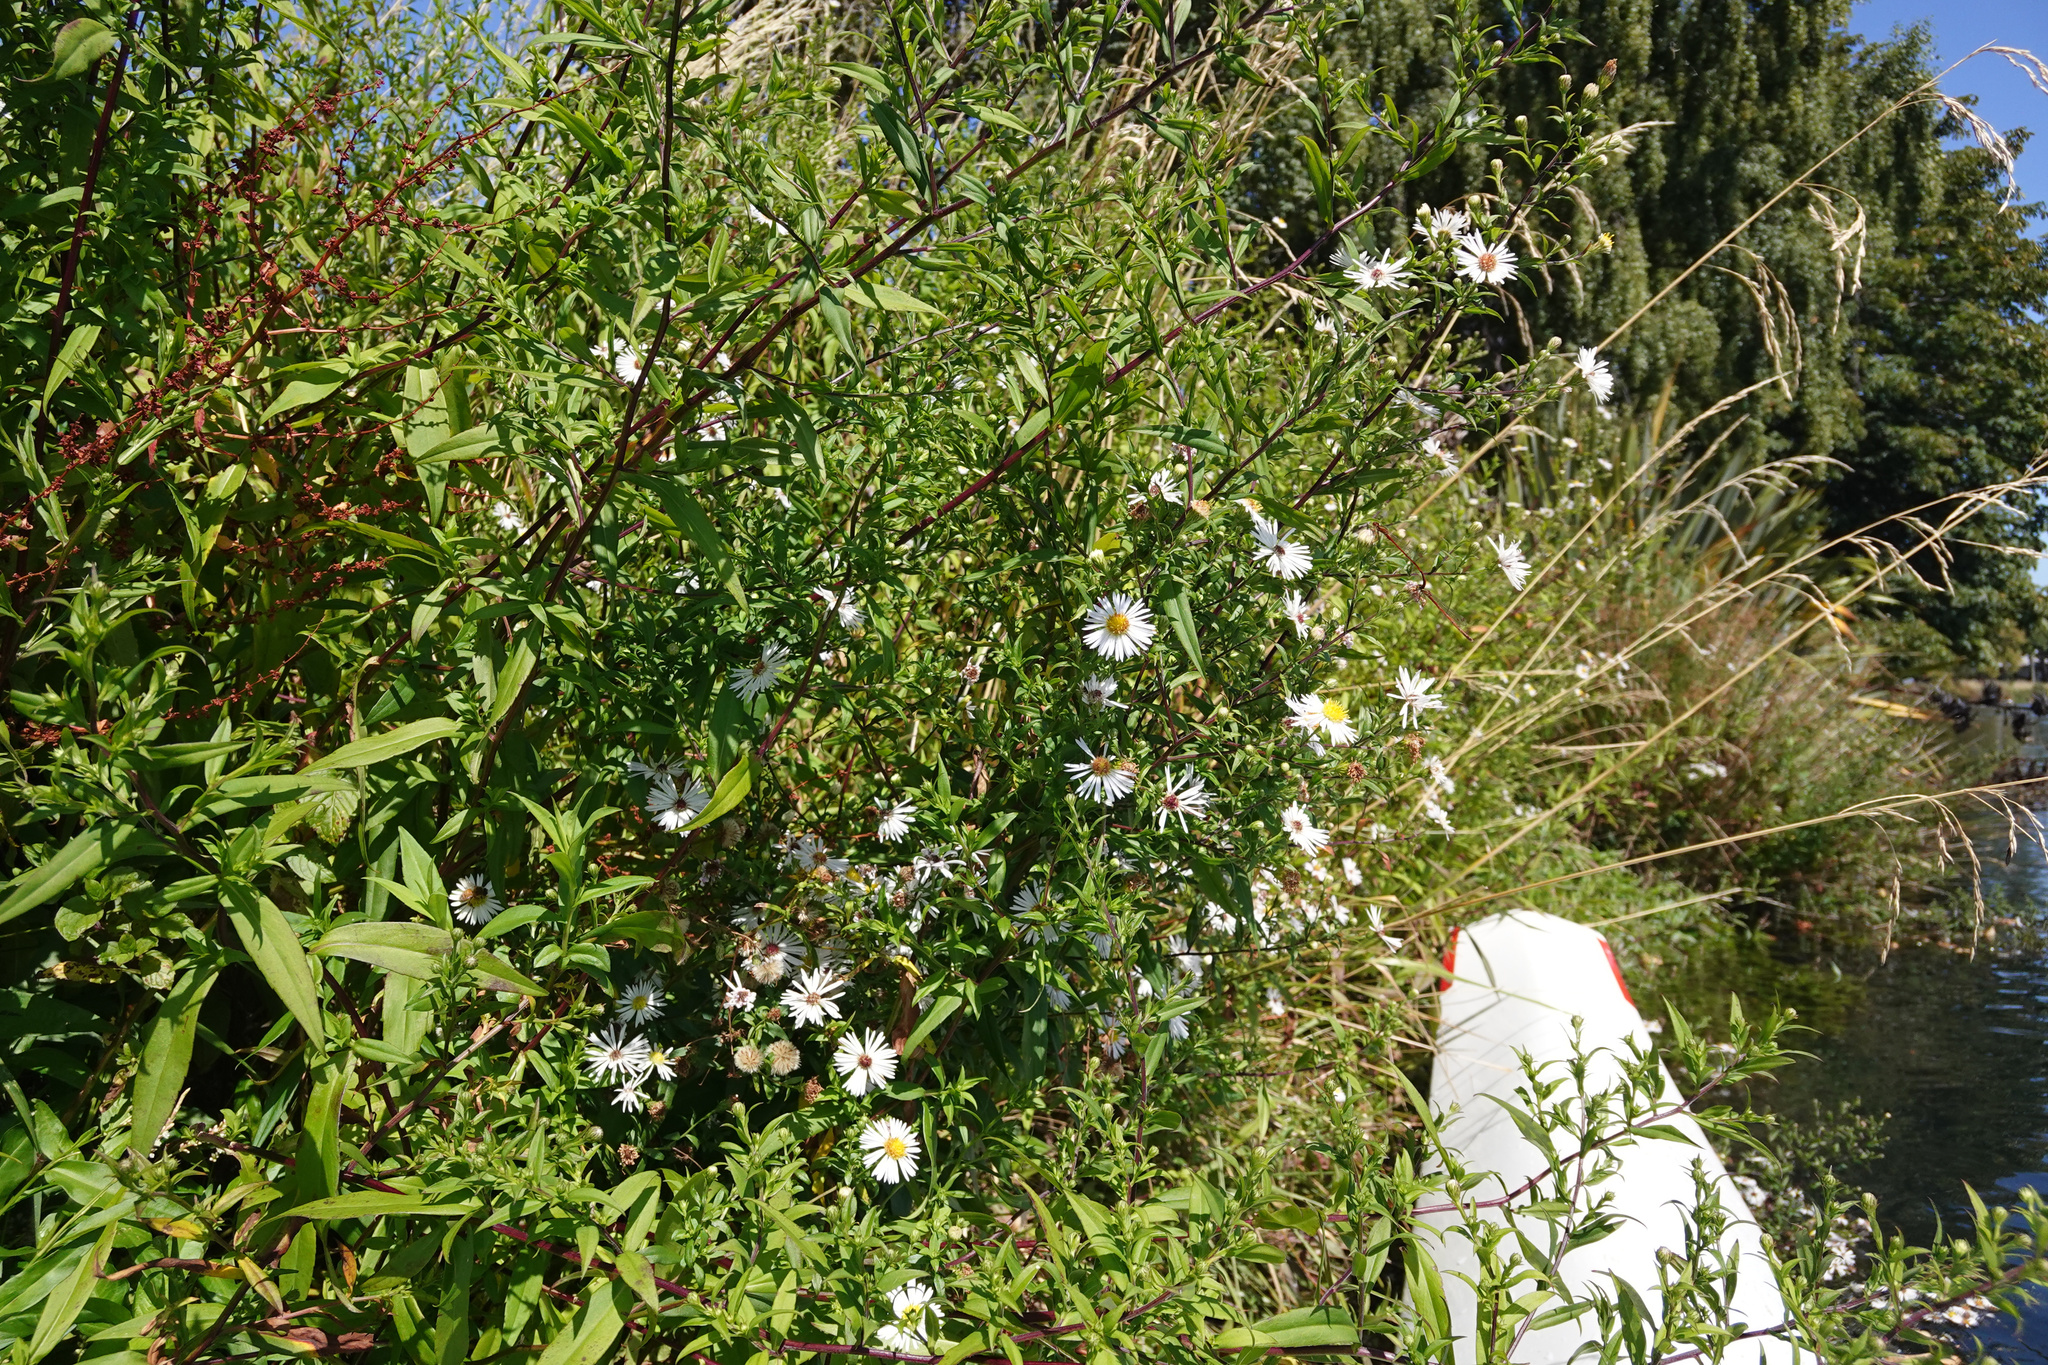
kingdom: Plantae
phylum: Tracheophyta
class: Magnoliopsida
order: Asterales
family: Asteraceae
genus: Symphyotrichum
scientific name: Symphyotrichum novi-belgii
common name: Michaelmas daisy
